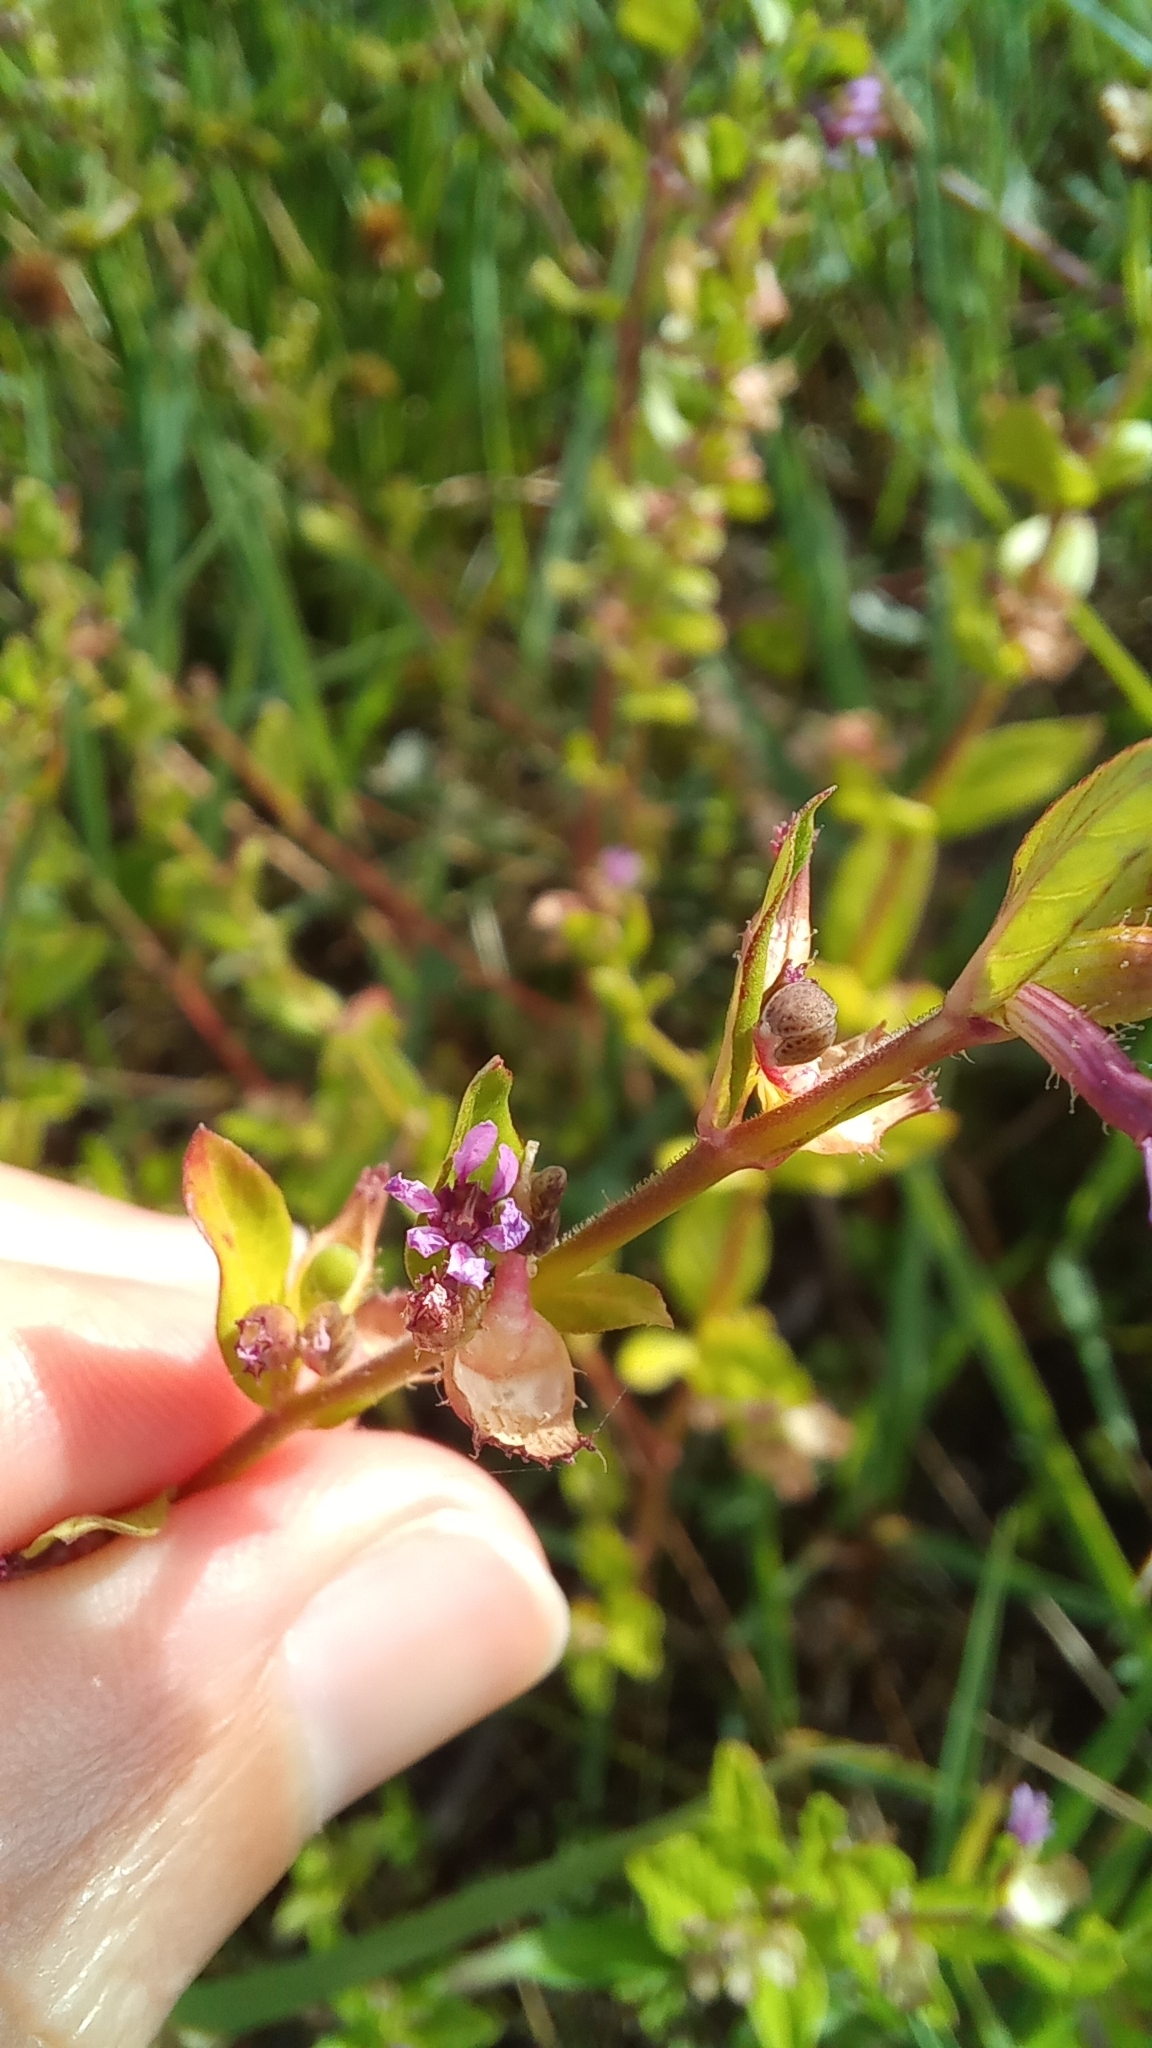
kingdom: Plantae
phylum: Tracheophyta
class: Magnoliopsida
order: Myrtales
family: Lythraceae
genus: Cuphea
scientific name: Cuphea carthagenensis
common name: Colombian waxweed
